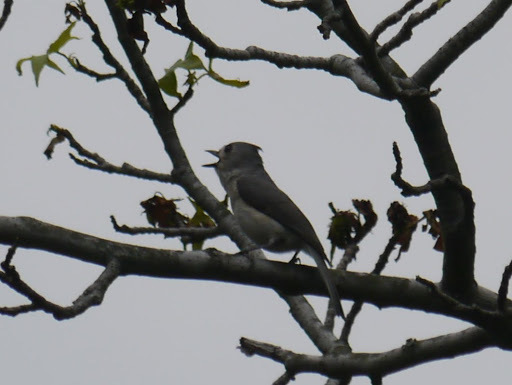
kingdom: Animalia
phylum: Chordata
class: Aves
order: Passeriformes
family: Paridae
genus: Baeolophus
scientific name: Baeolophus bicolor
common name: Tufted titmouse
